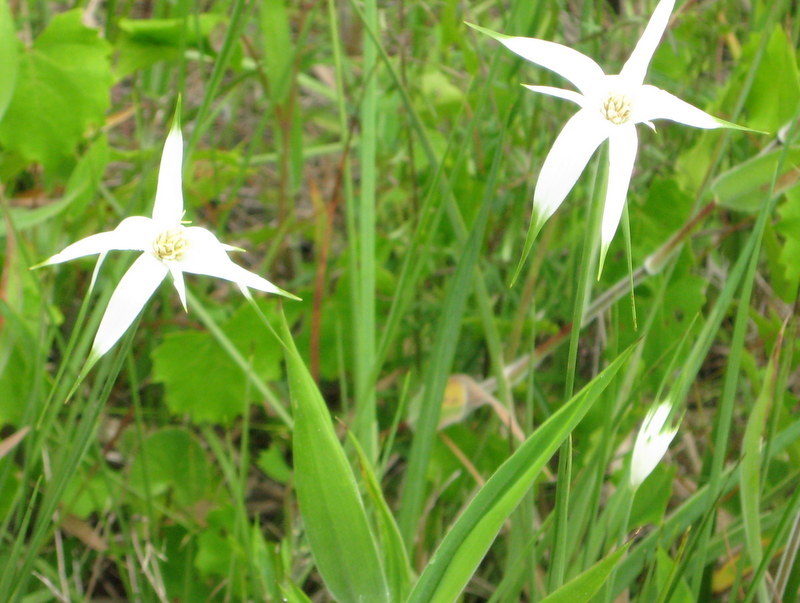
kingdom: Plantae
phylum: Tracheophyta
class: Liliopsida
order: Poales
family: Cyperaceae
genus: Rhynchospora
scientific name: Rhynchospora colorata
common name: Star sedge
